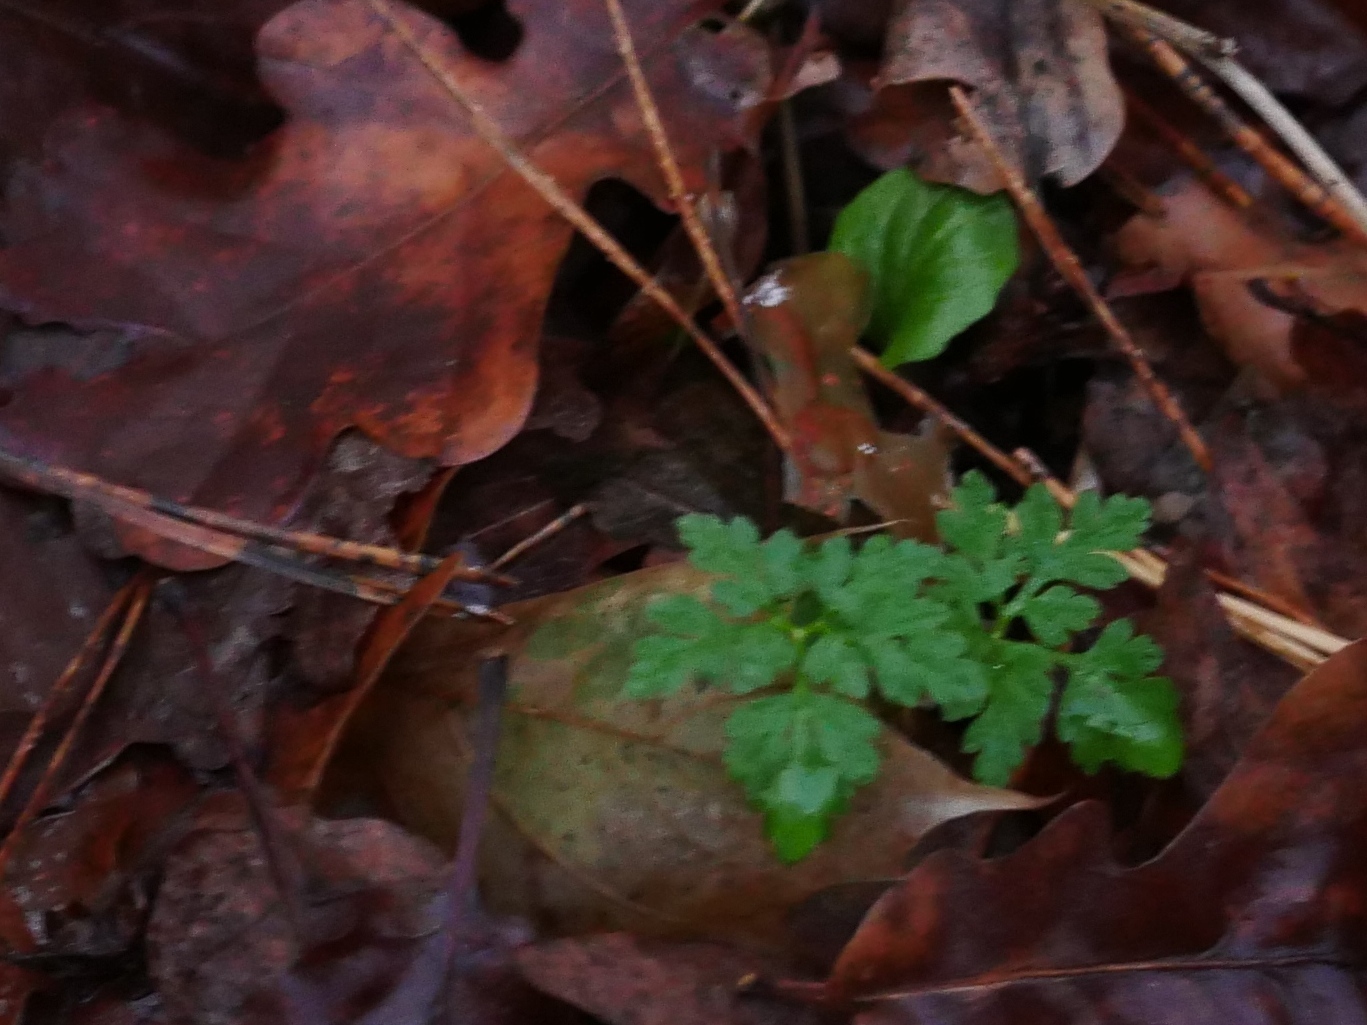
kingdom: Plantae
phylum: Tracheophyta
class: Magnoliopsida
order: Geraniales
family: Geraniaceae
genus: Geranium
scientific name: Geranium robertianum
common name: Herb-robert
